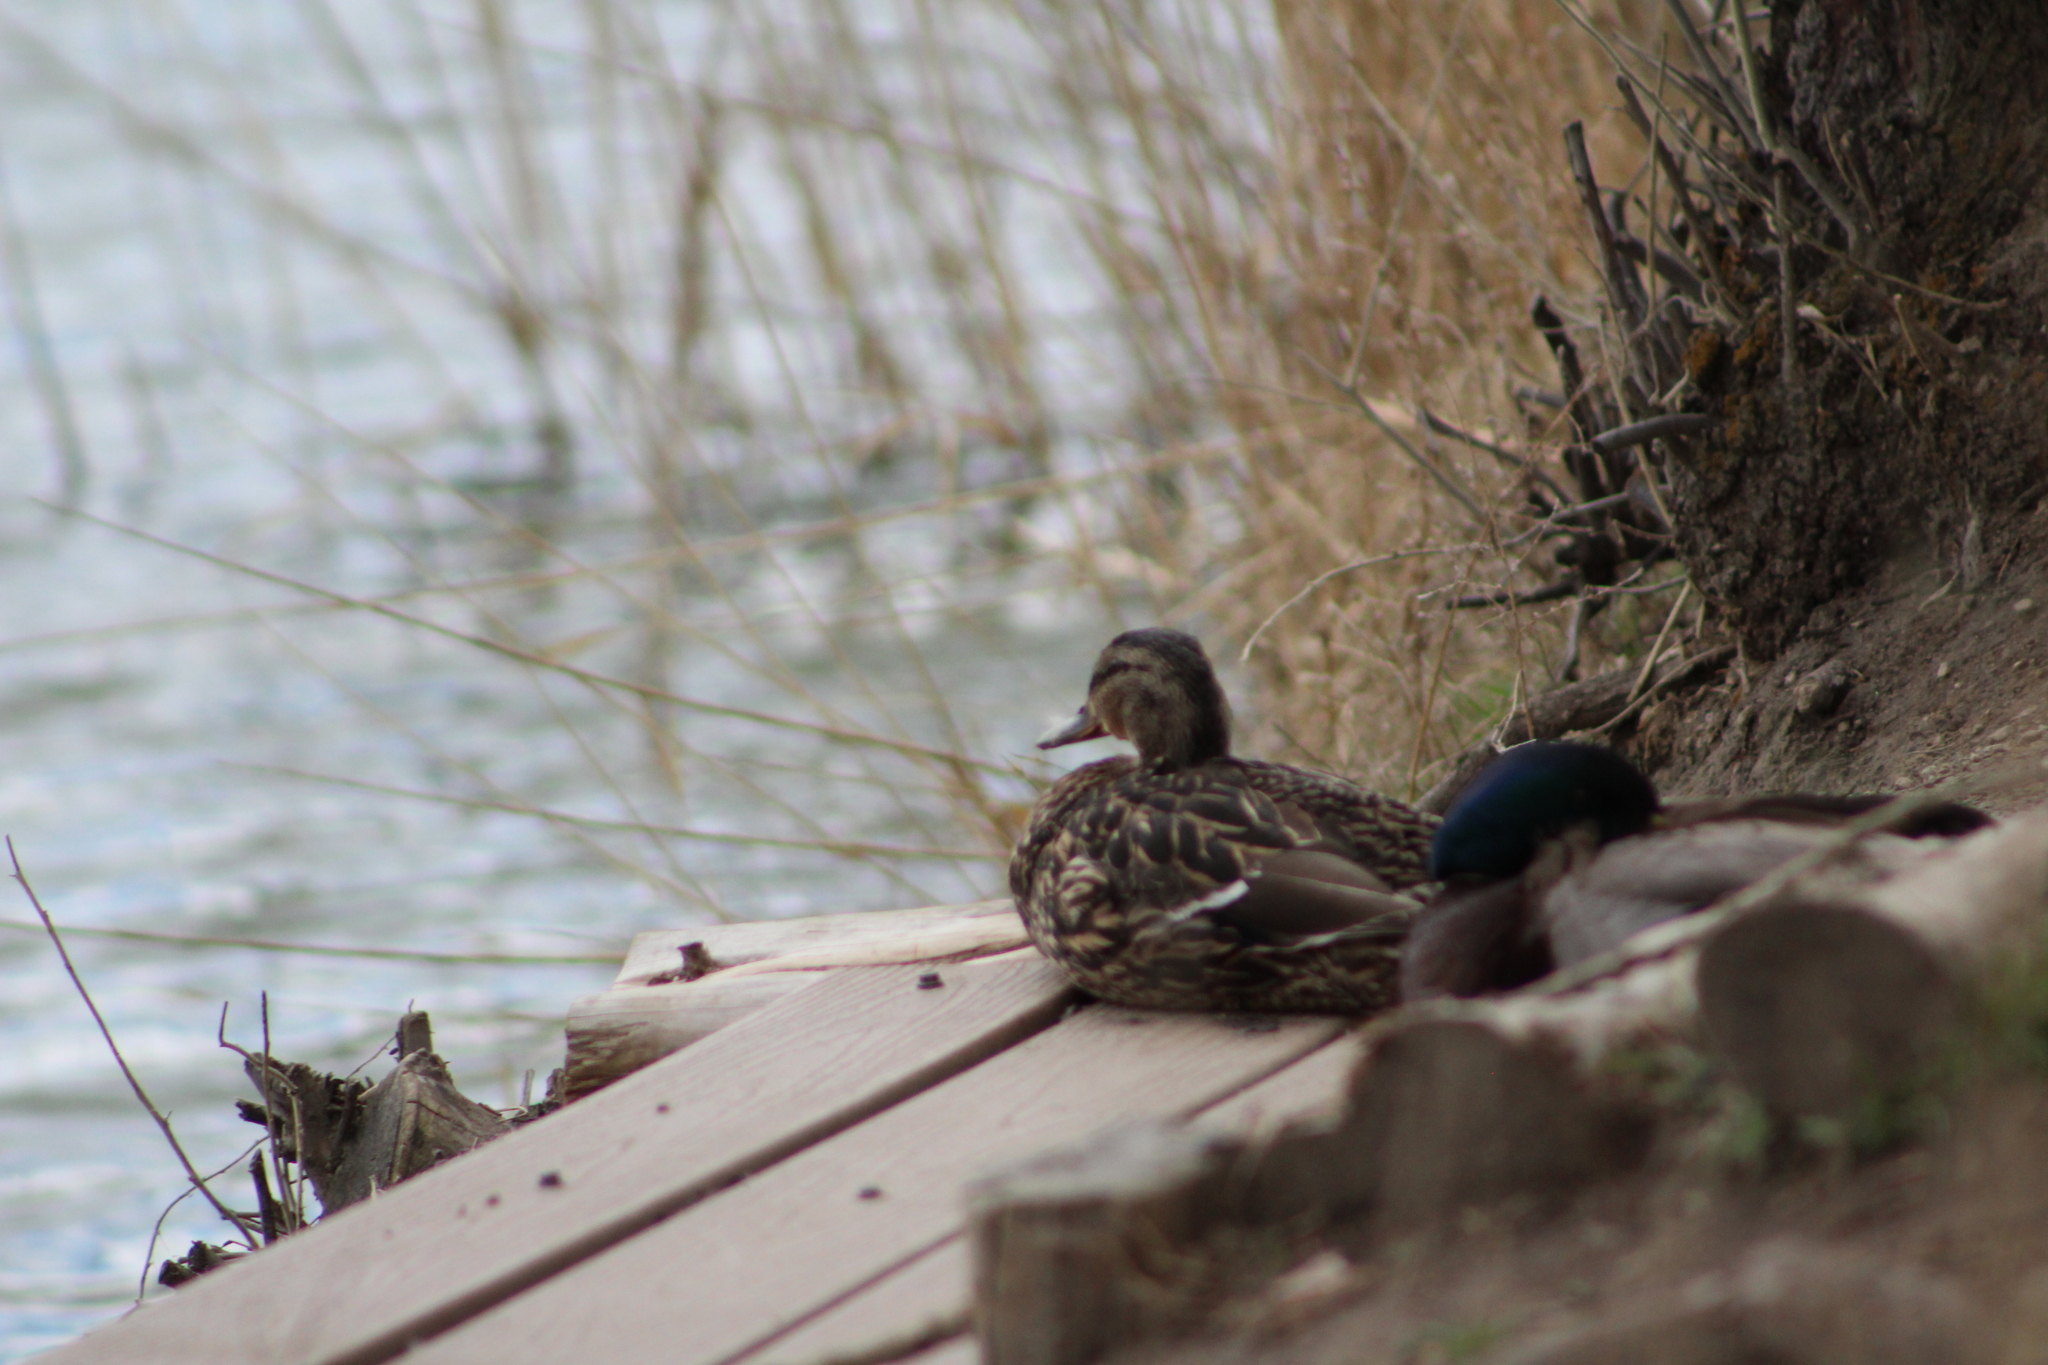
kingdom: Animalia
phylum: Chordata
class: Aves
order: Anseriformes
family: Anatidae
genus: Anas
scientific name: Anas platyrhynchos
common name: Mallard
